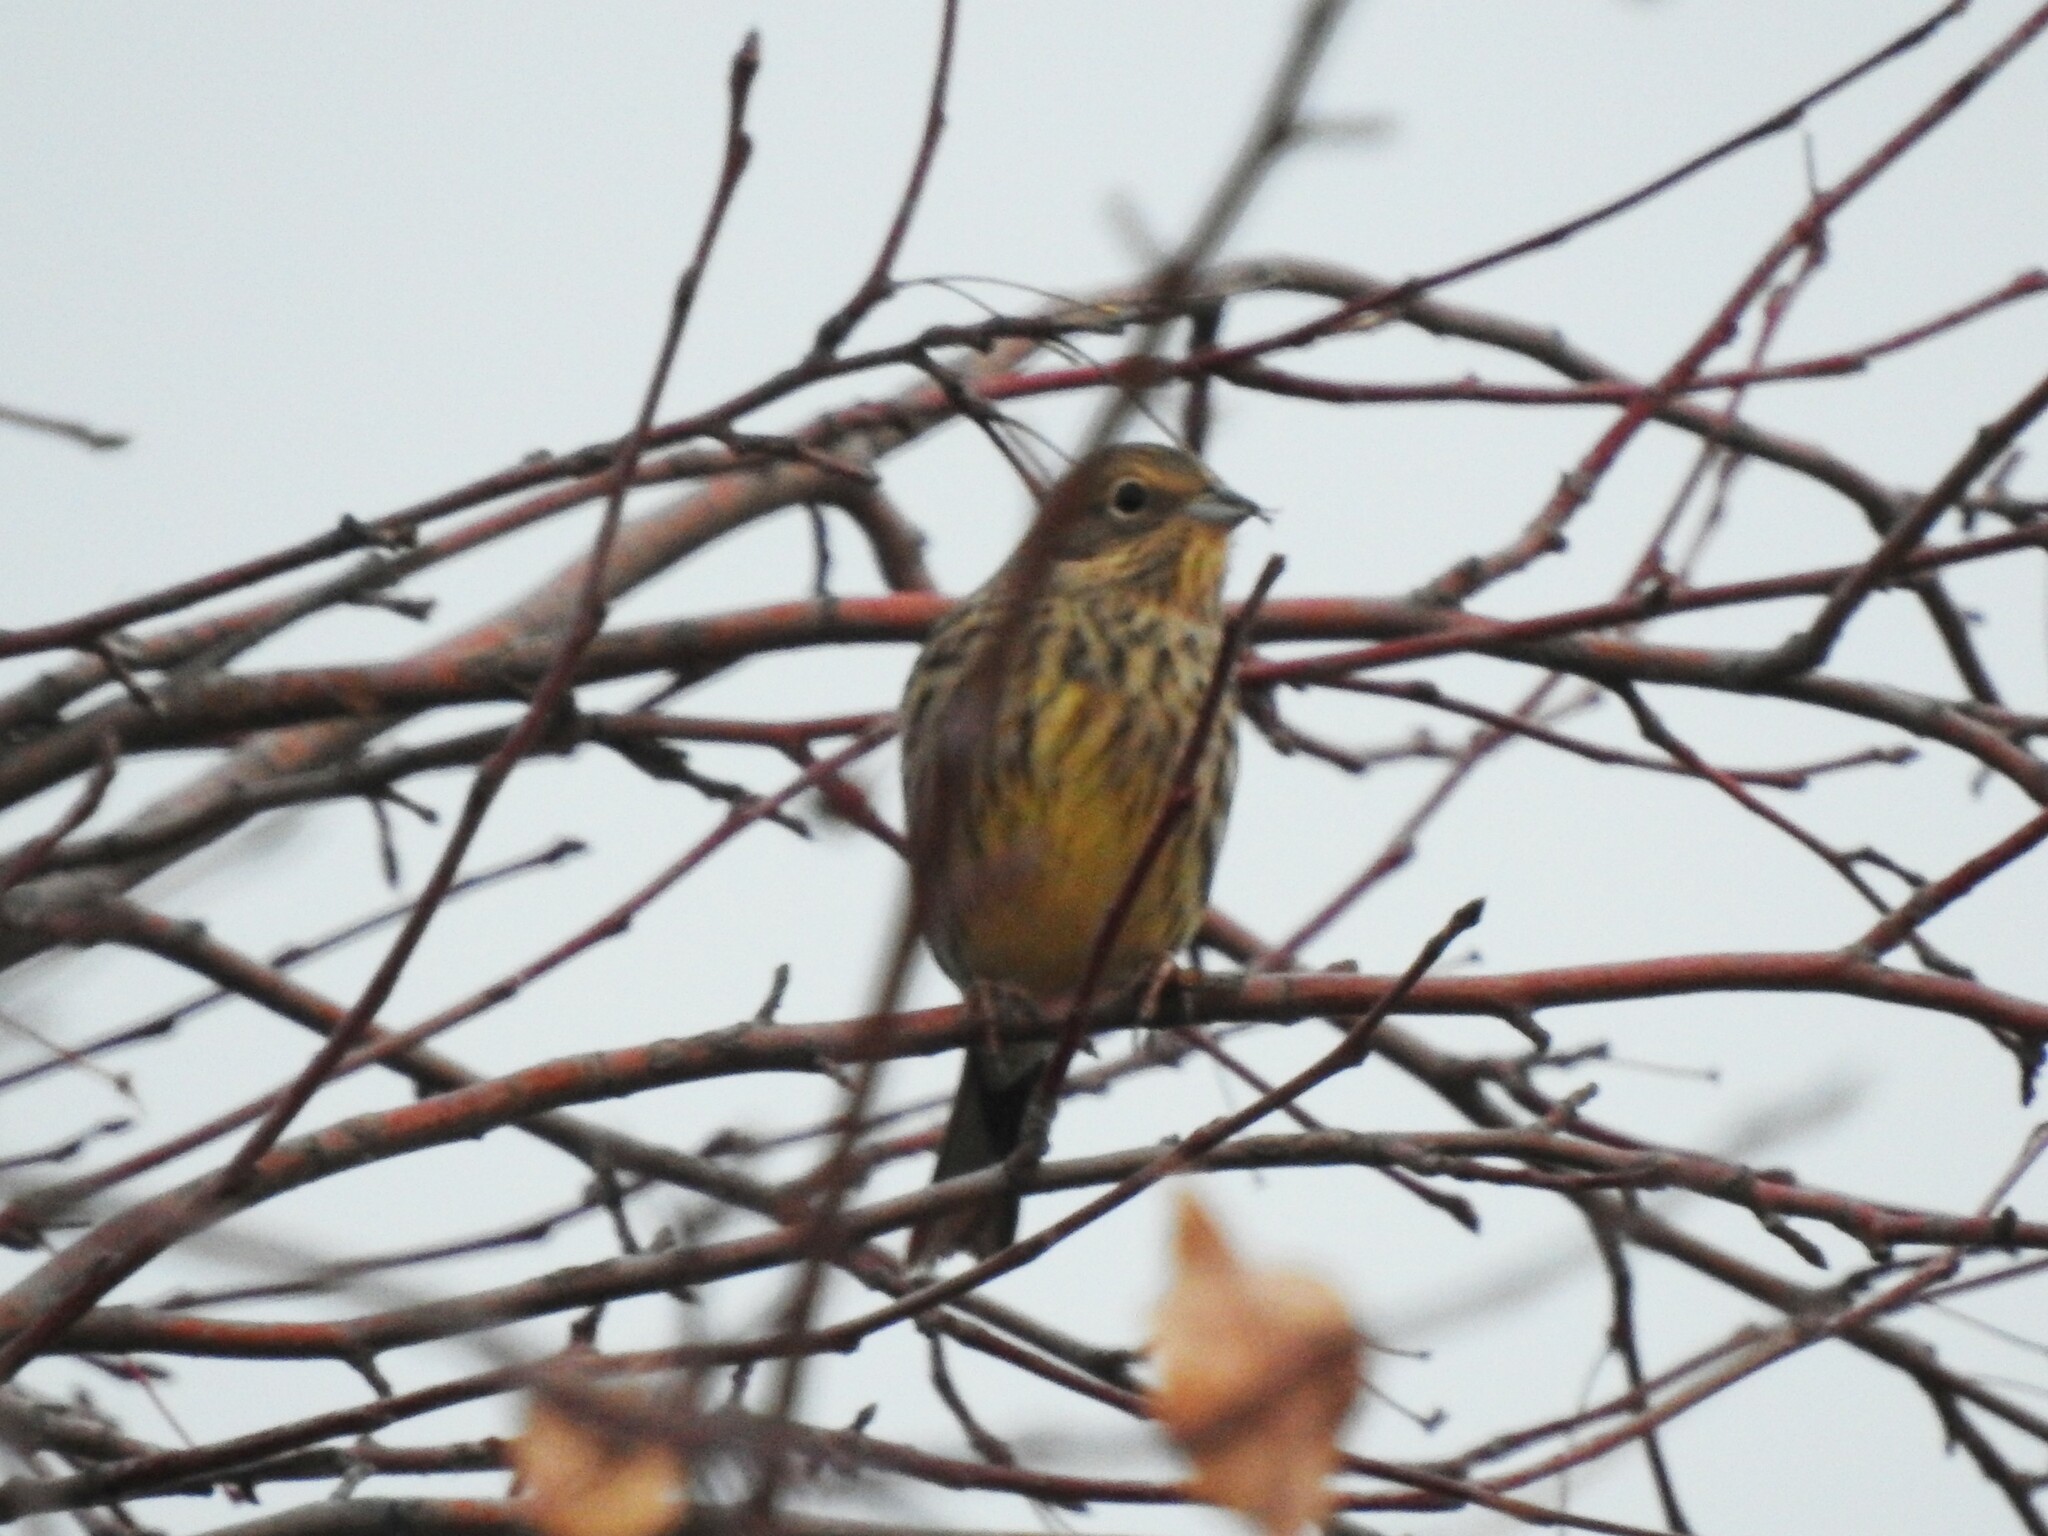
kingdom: Animalia
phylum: Chordata
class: Aves
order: Passeriformes
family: Emberizidae
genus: Emberiza
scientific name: Emberiza citrinella
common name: Yellowhammer
